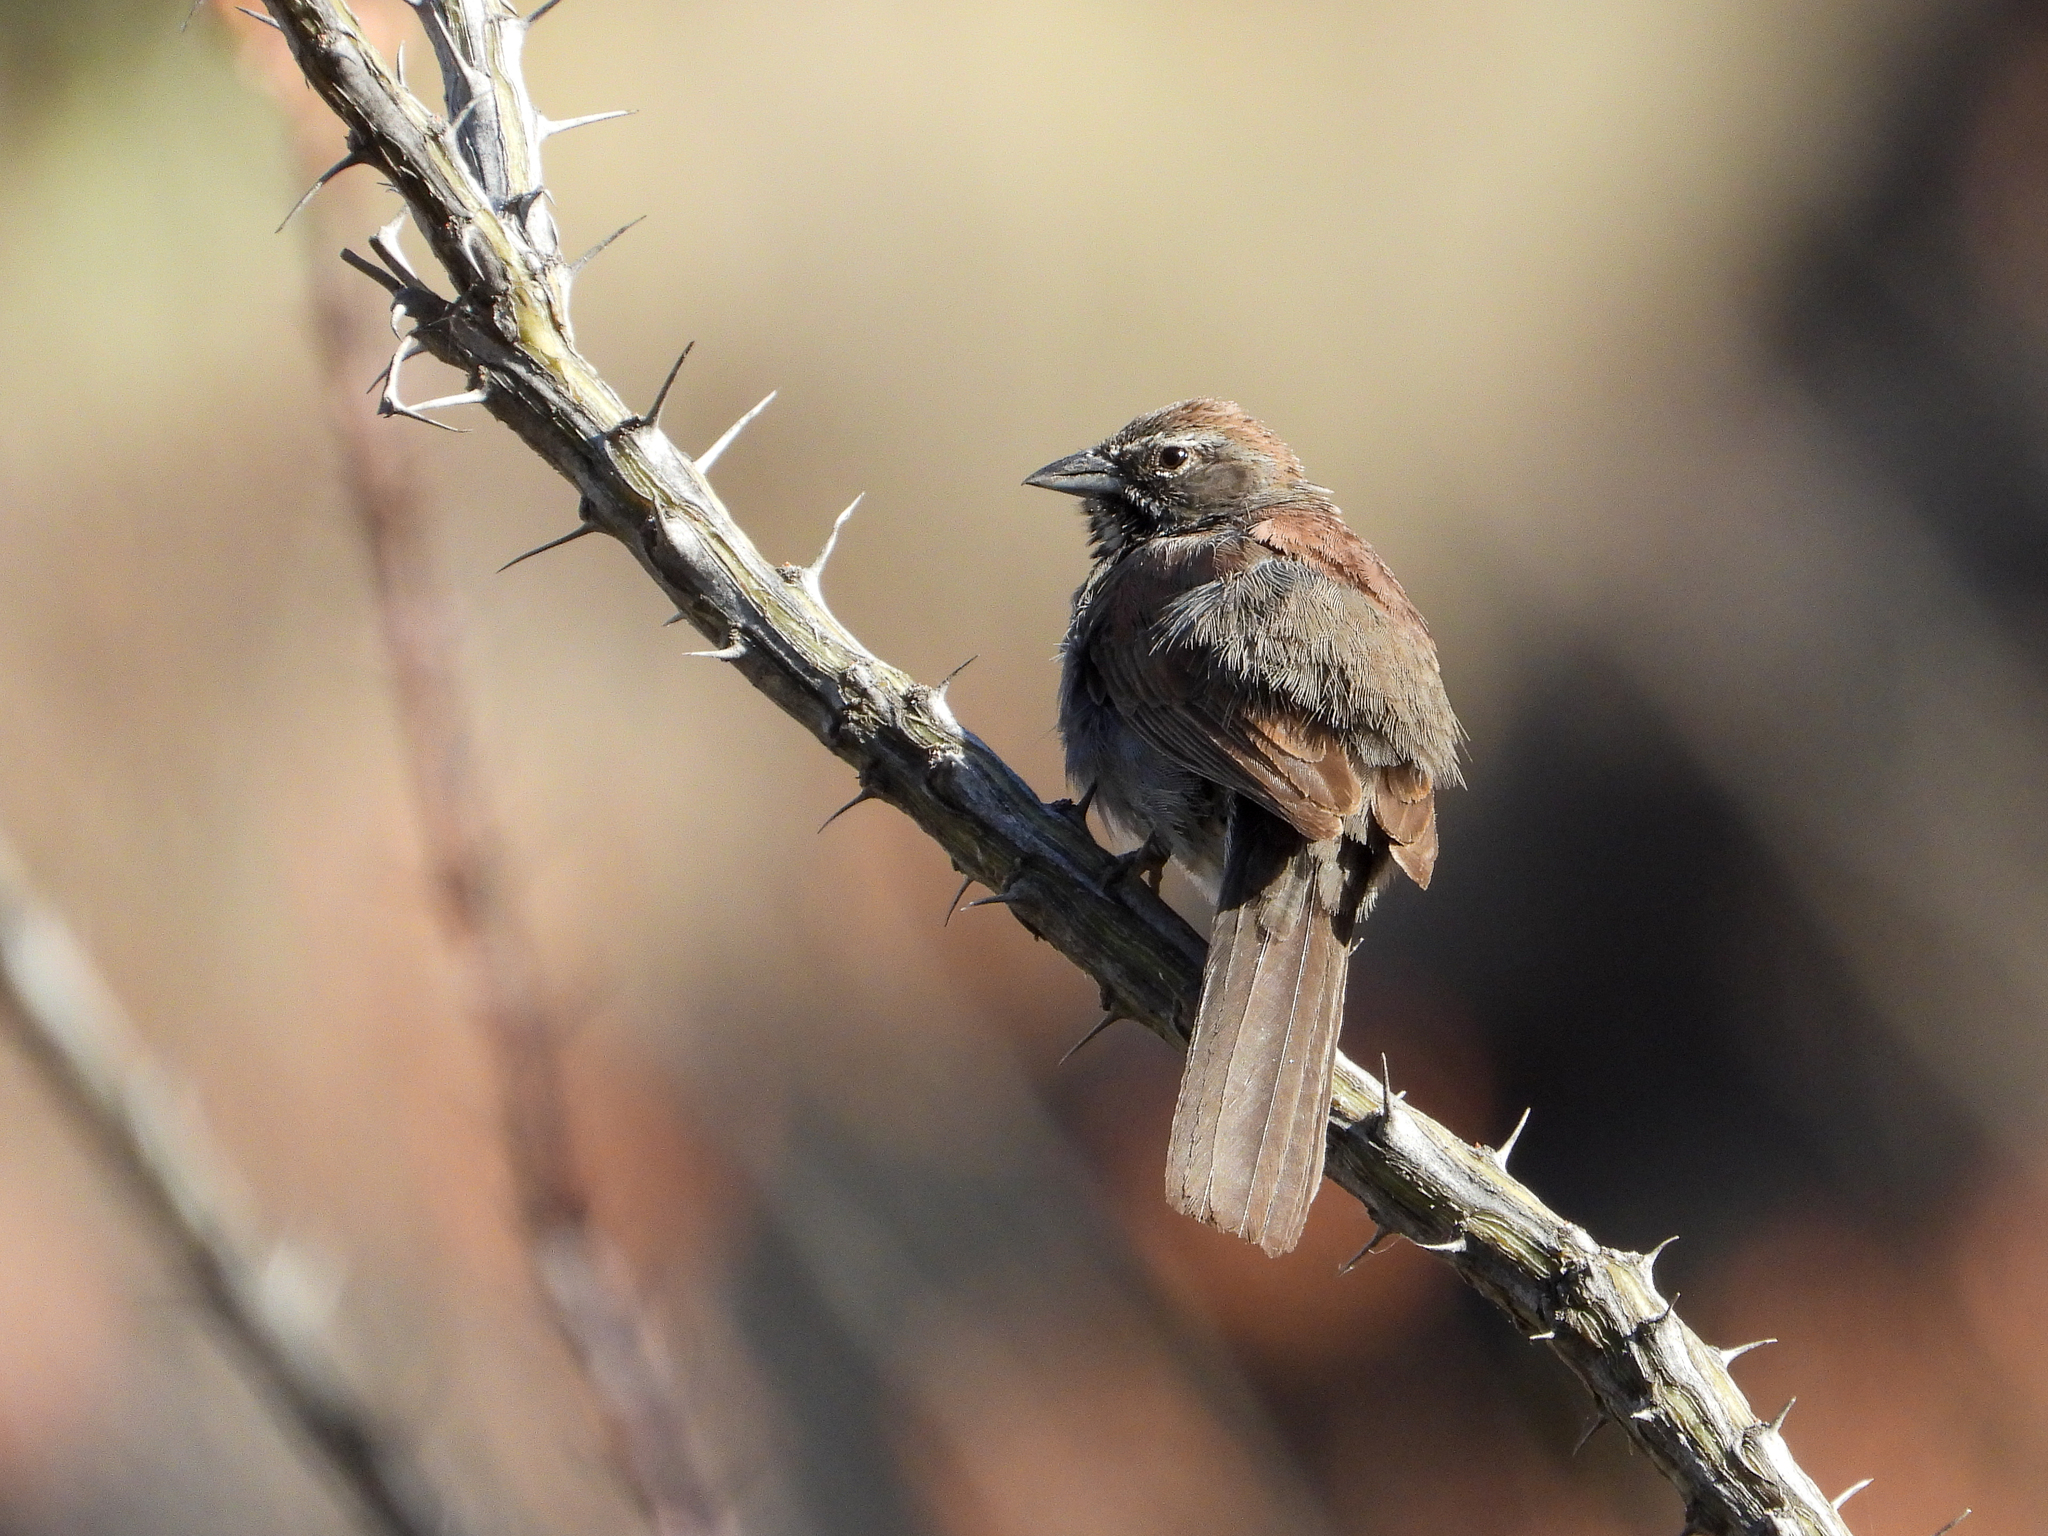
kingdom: Animalia
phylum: Chordata
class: Aves
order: Passeriformes
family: Passerellidae
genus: Amphispizopsis
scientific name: Amphispizopsis quinquestriata
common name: Five-striped sparrow
